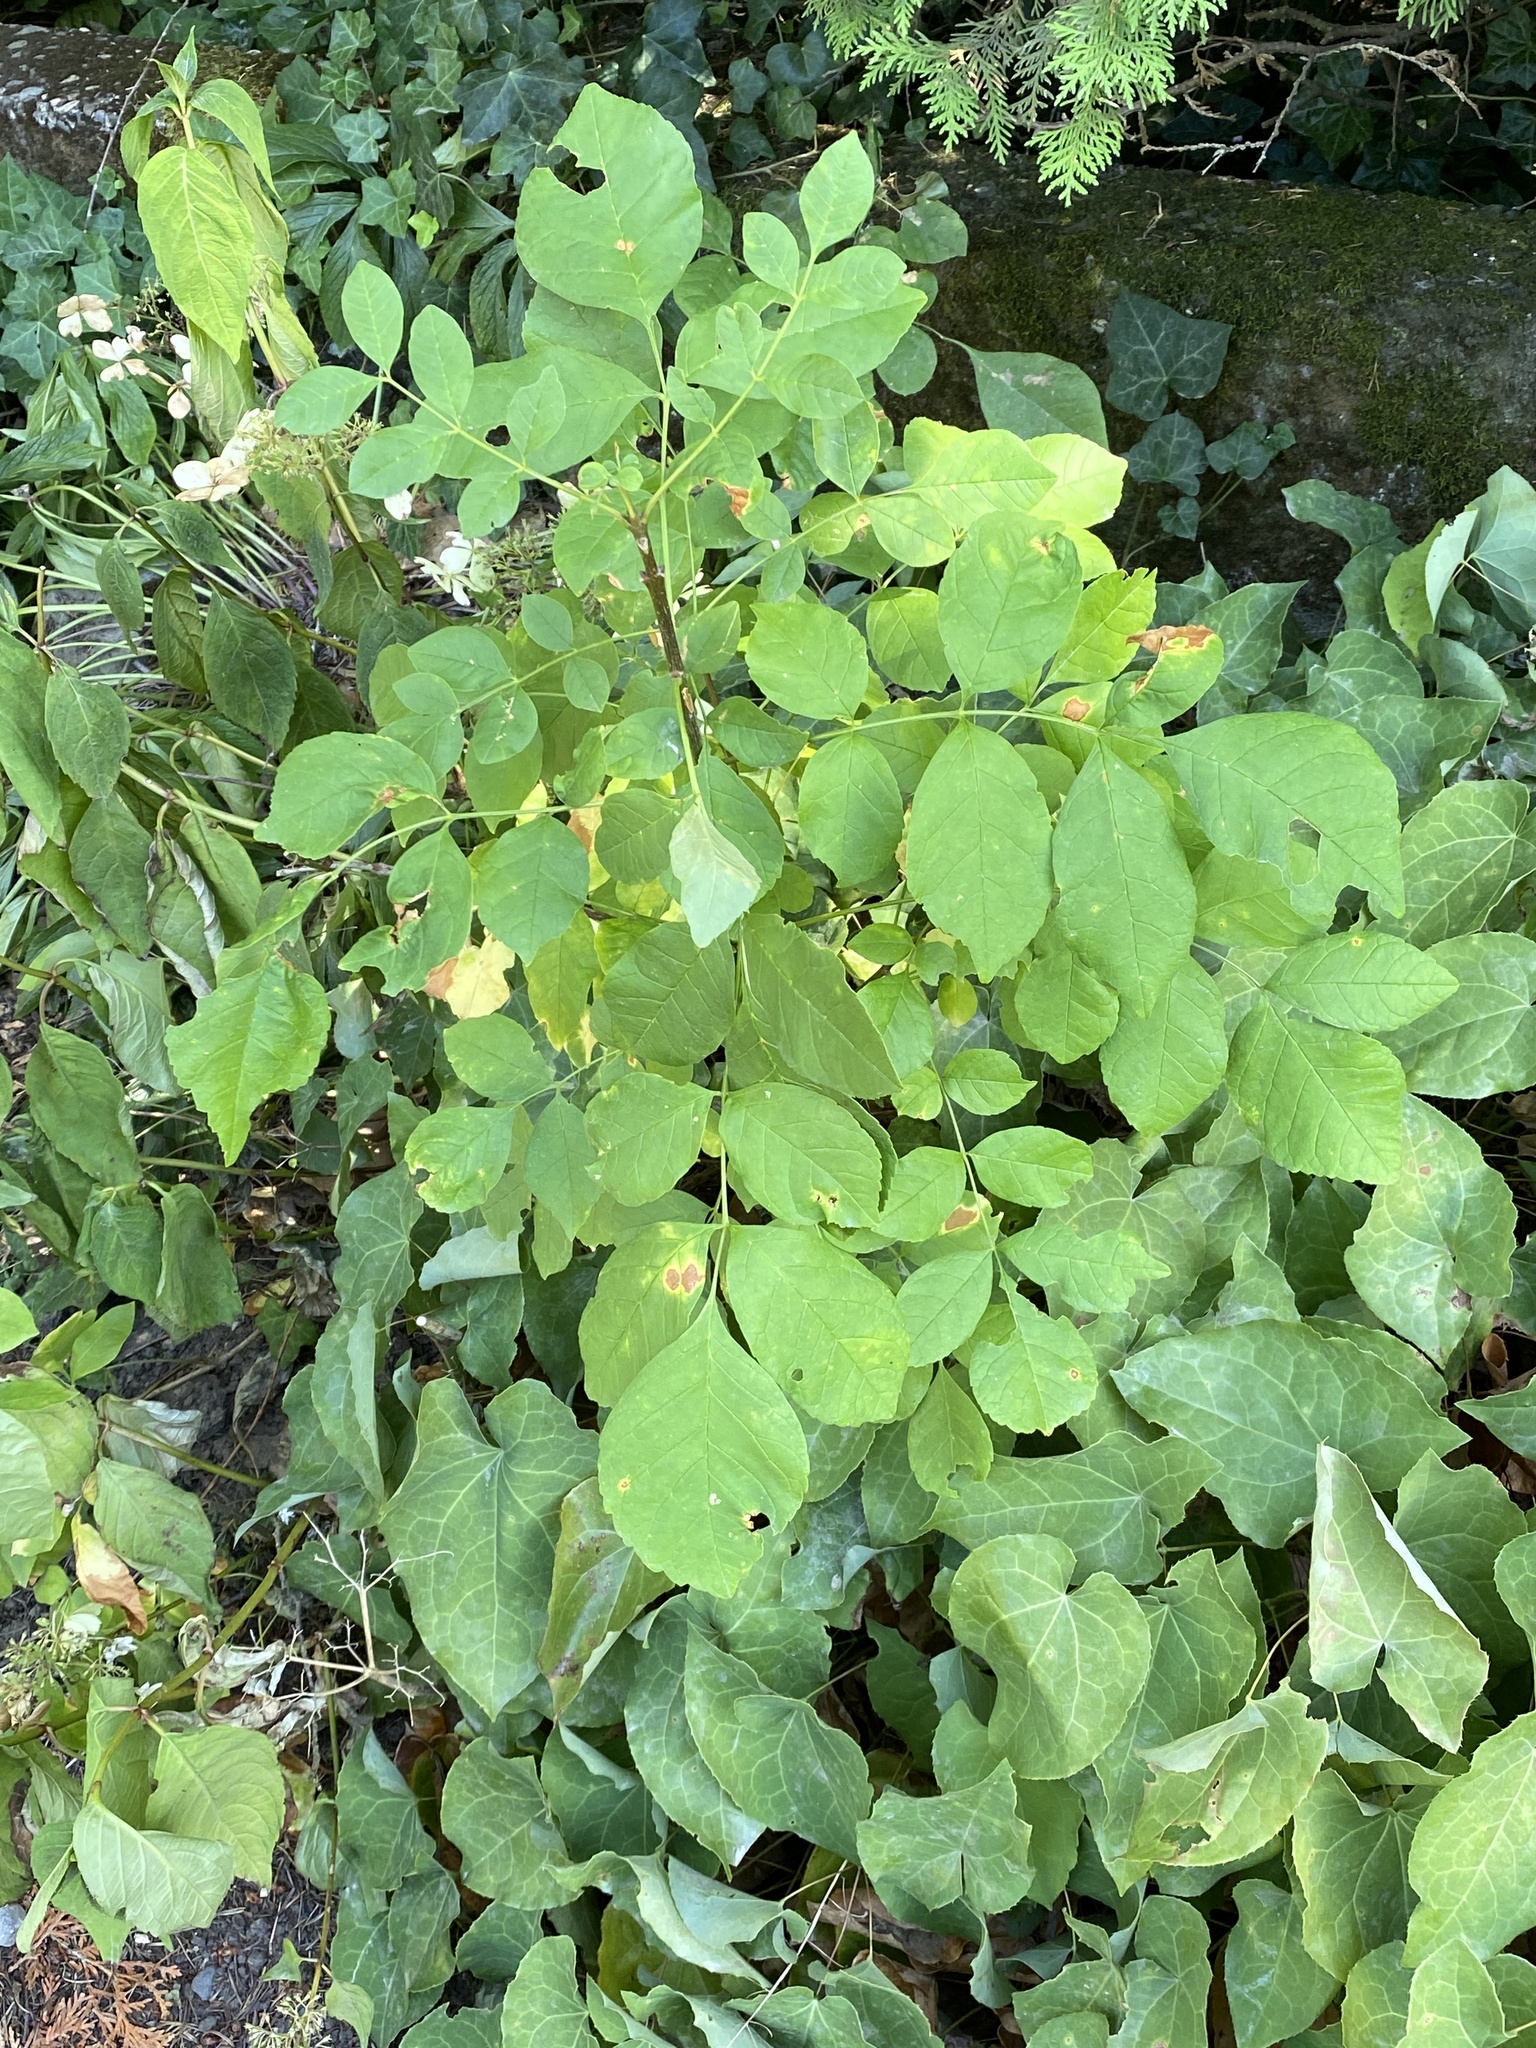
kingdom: Plantae
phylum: Tracheophyta
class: Magnoliopsida
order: Lamiales
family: Oleaceae
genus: Fraxinus
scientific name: Fraxinus latifolia
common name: Oregon ash
